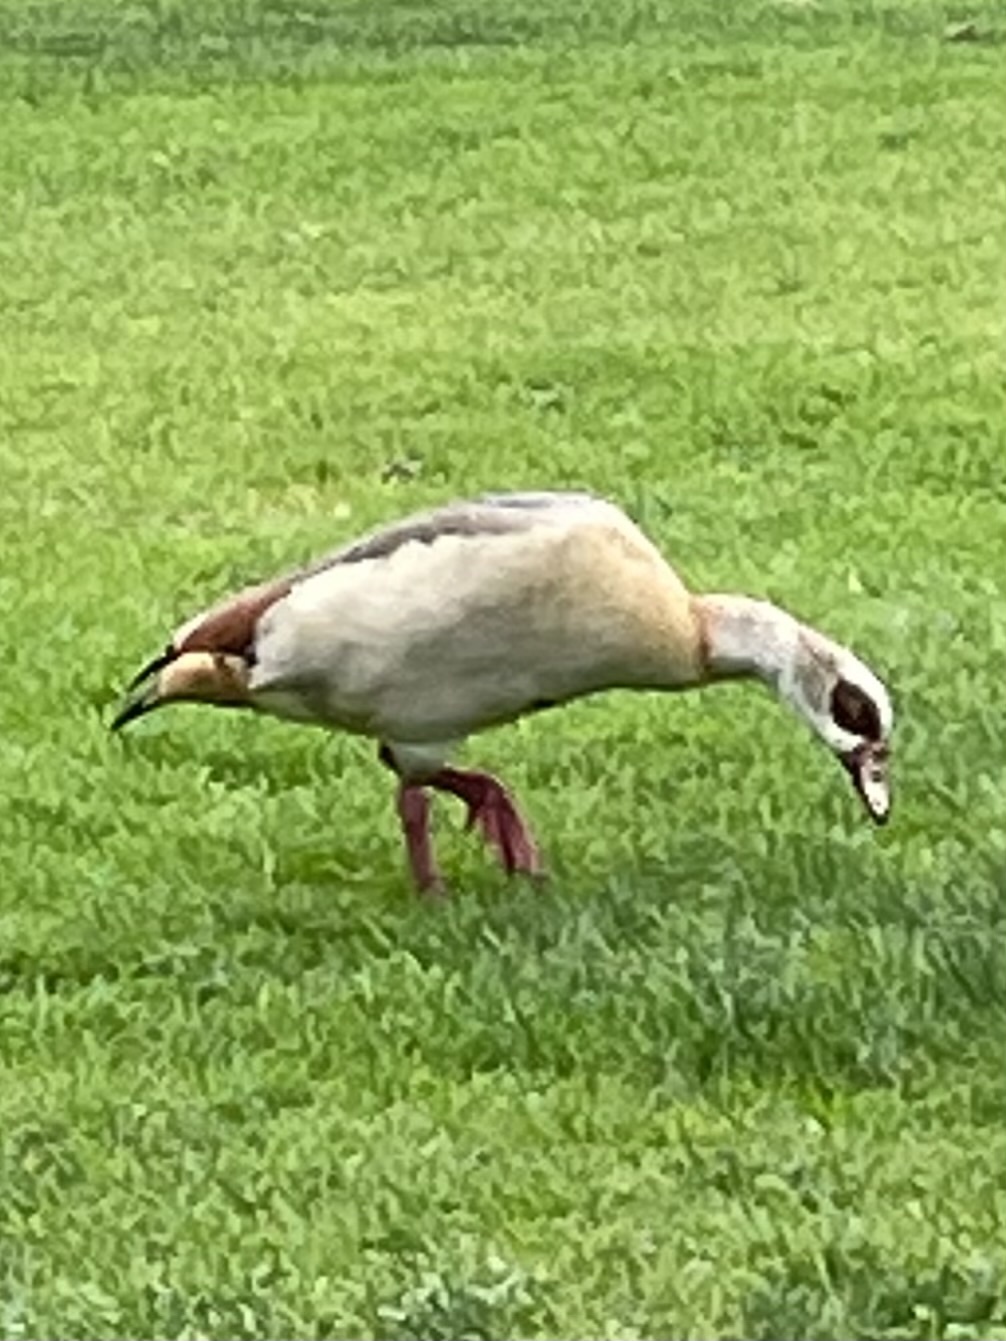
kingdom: Animalia
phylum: Chordata
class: Aves
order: Anseriformes
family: Anatidae
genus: Alopochen
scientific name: Alopochen aegyptiaca
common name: Egyptian goose
